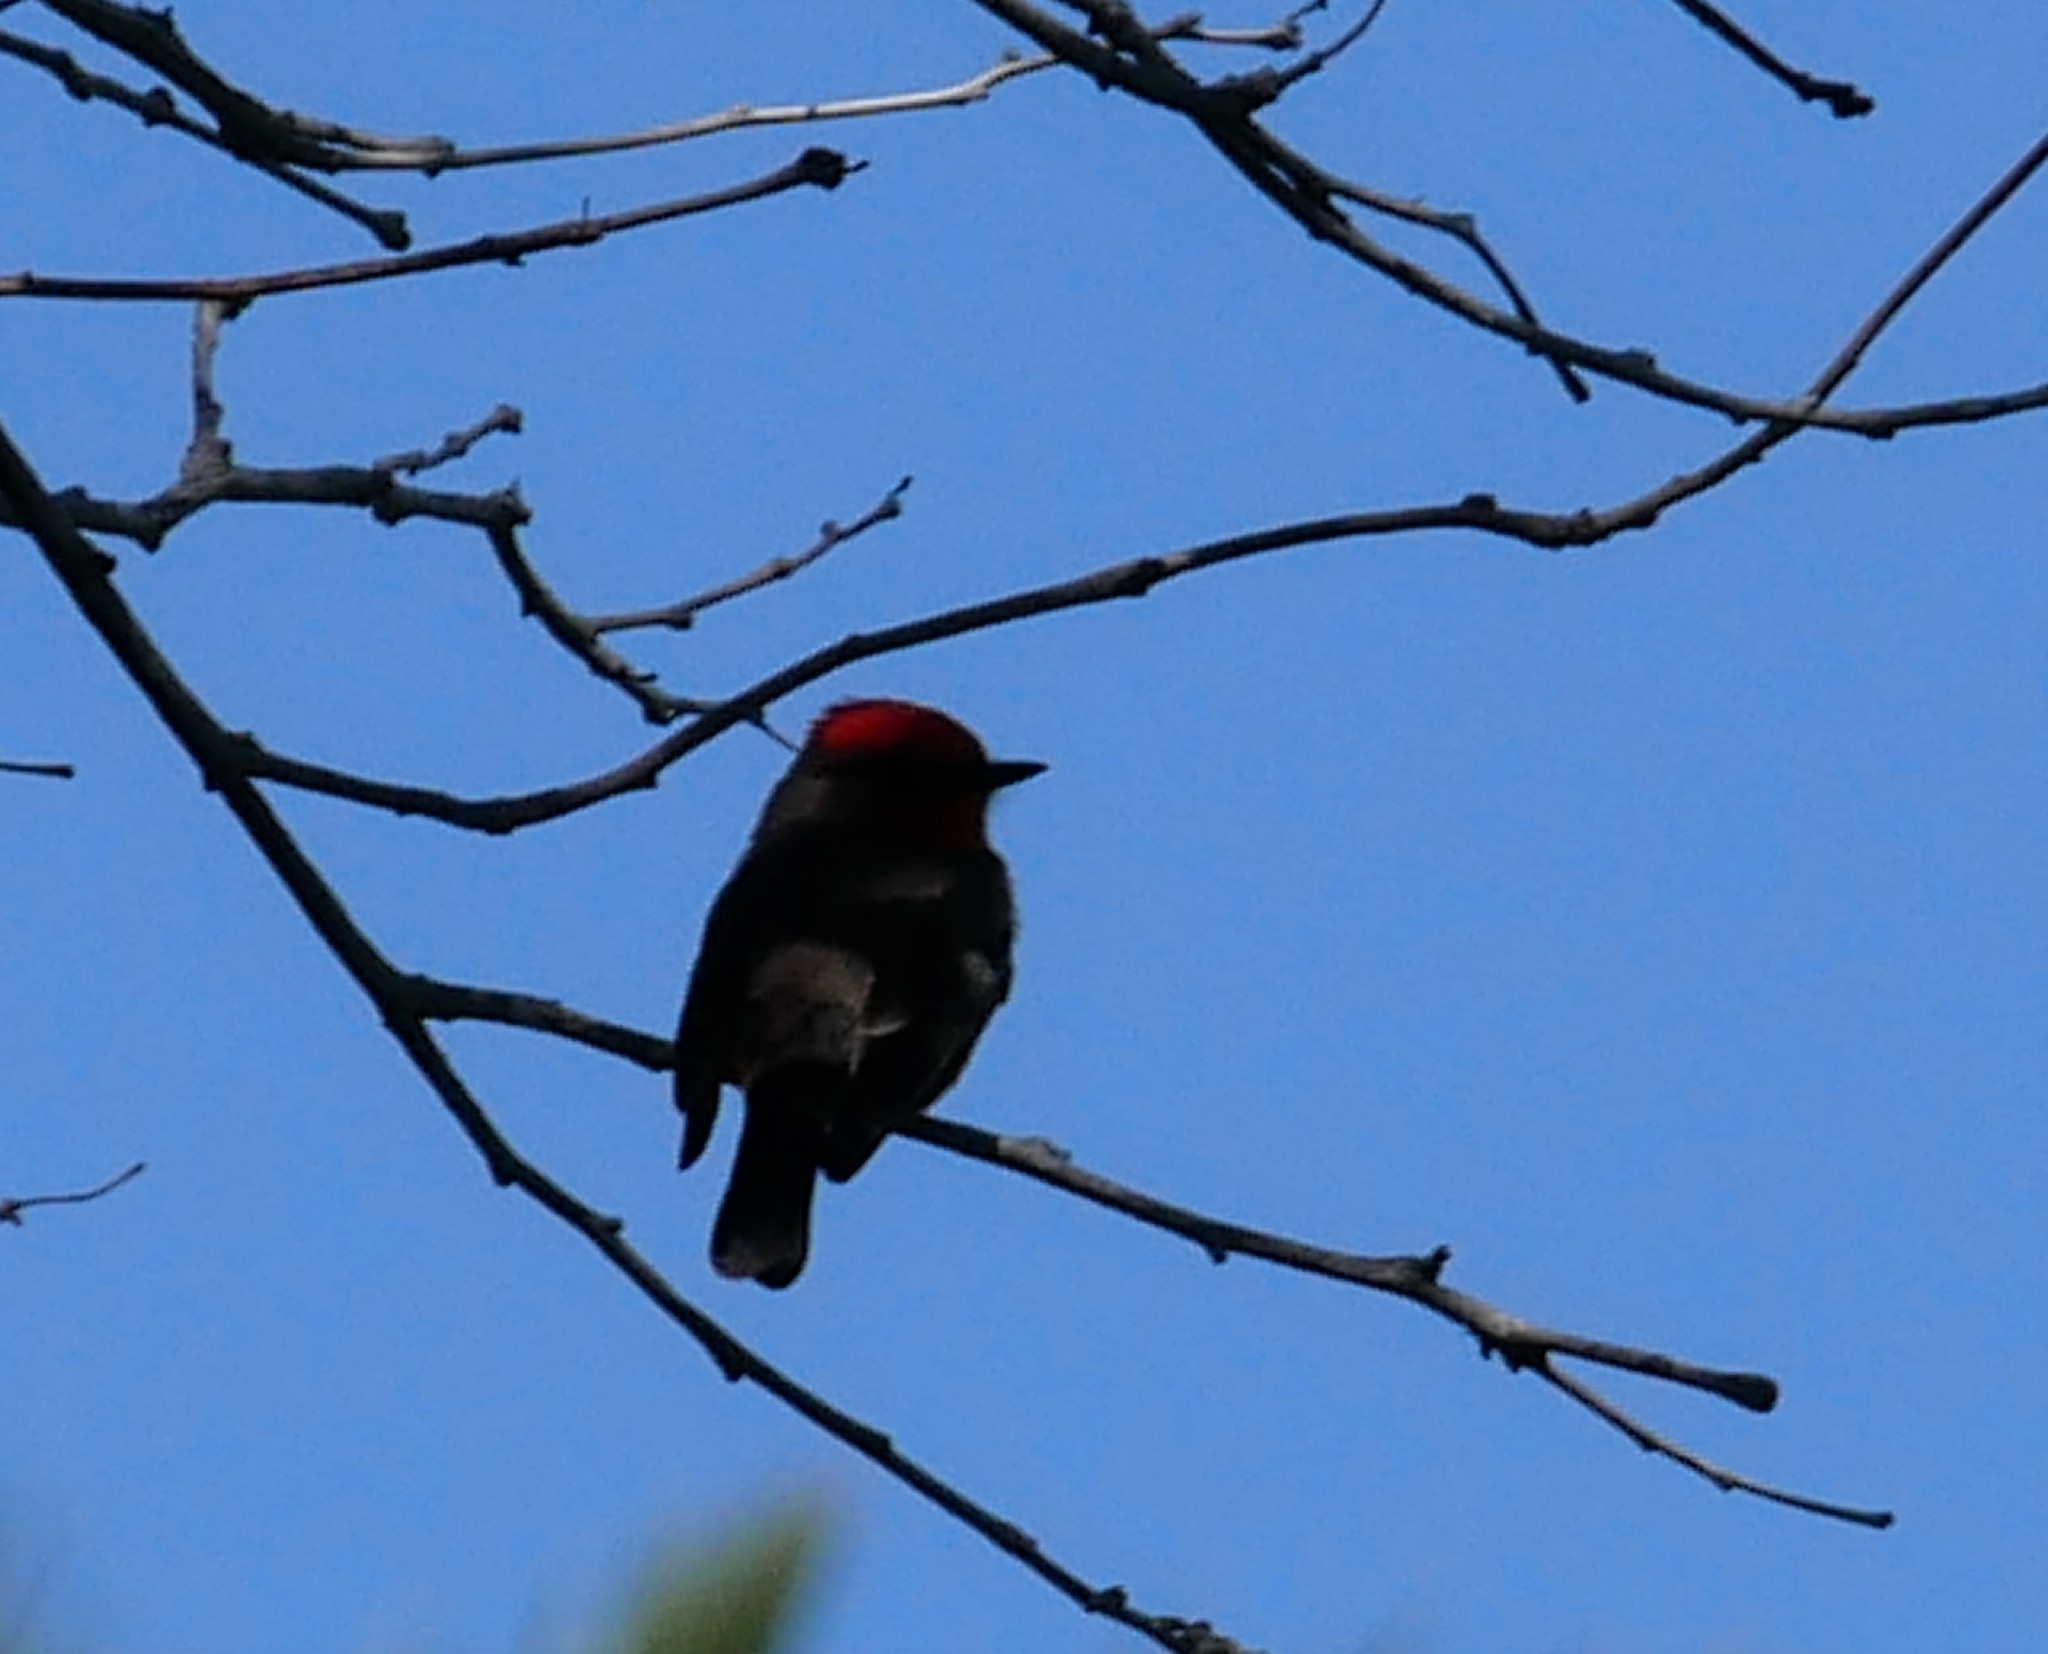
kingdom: Animalia
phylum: Chordata
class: Aves
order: Passeriformes
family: Tyrannidae
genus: Pyrocephalus
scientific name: Pyrocephalus rubinus
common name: Vermilion flycatcher
